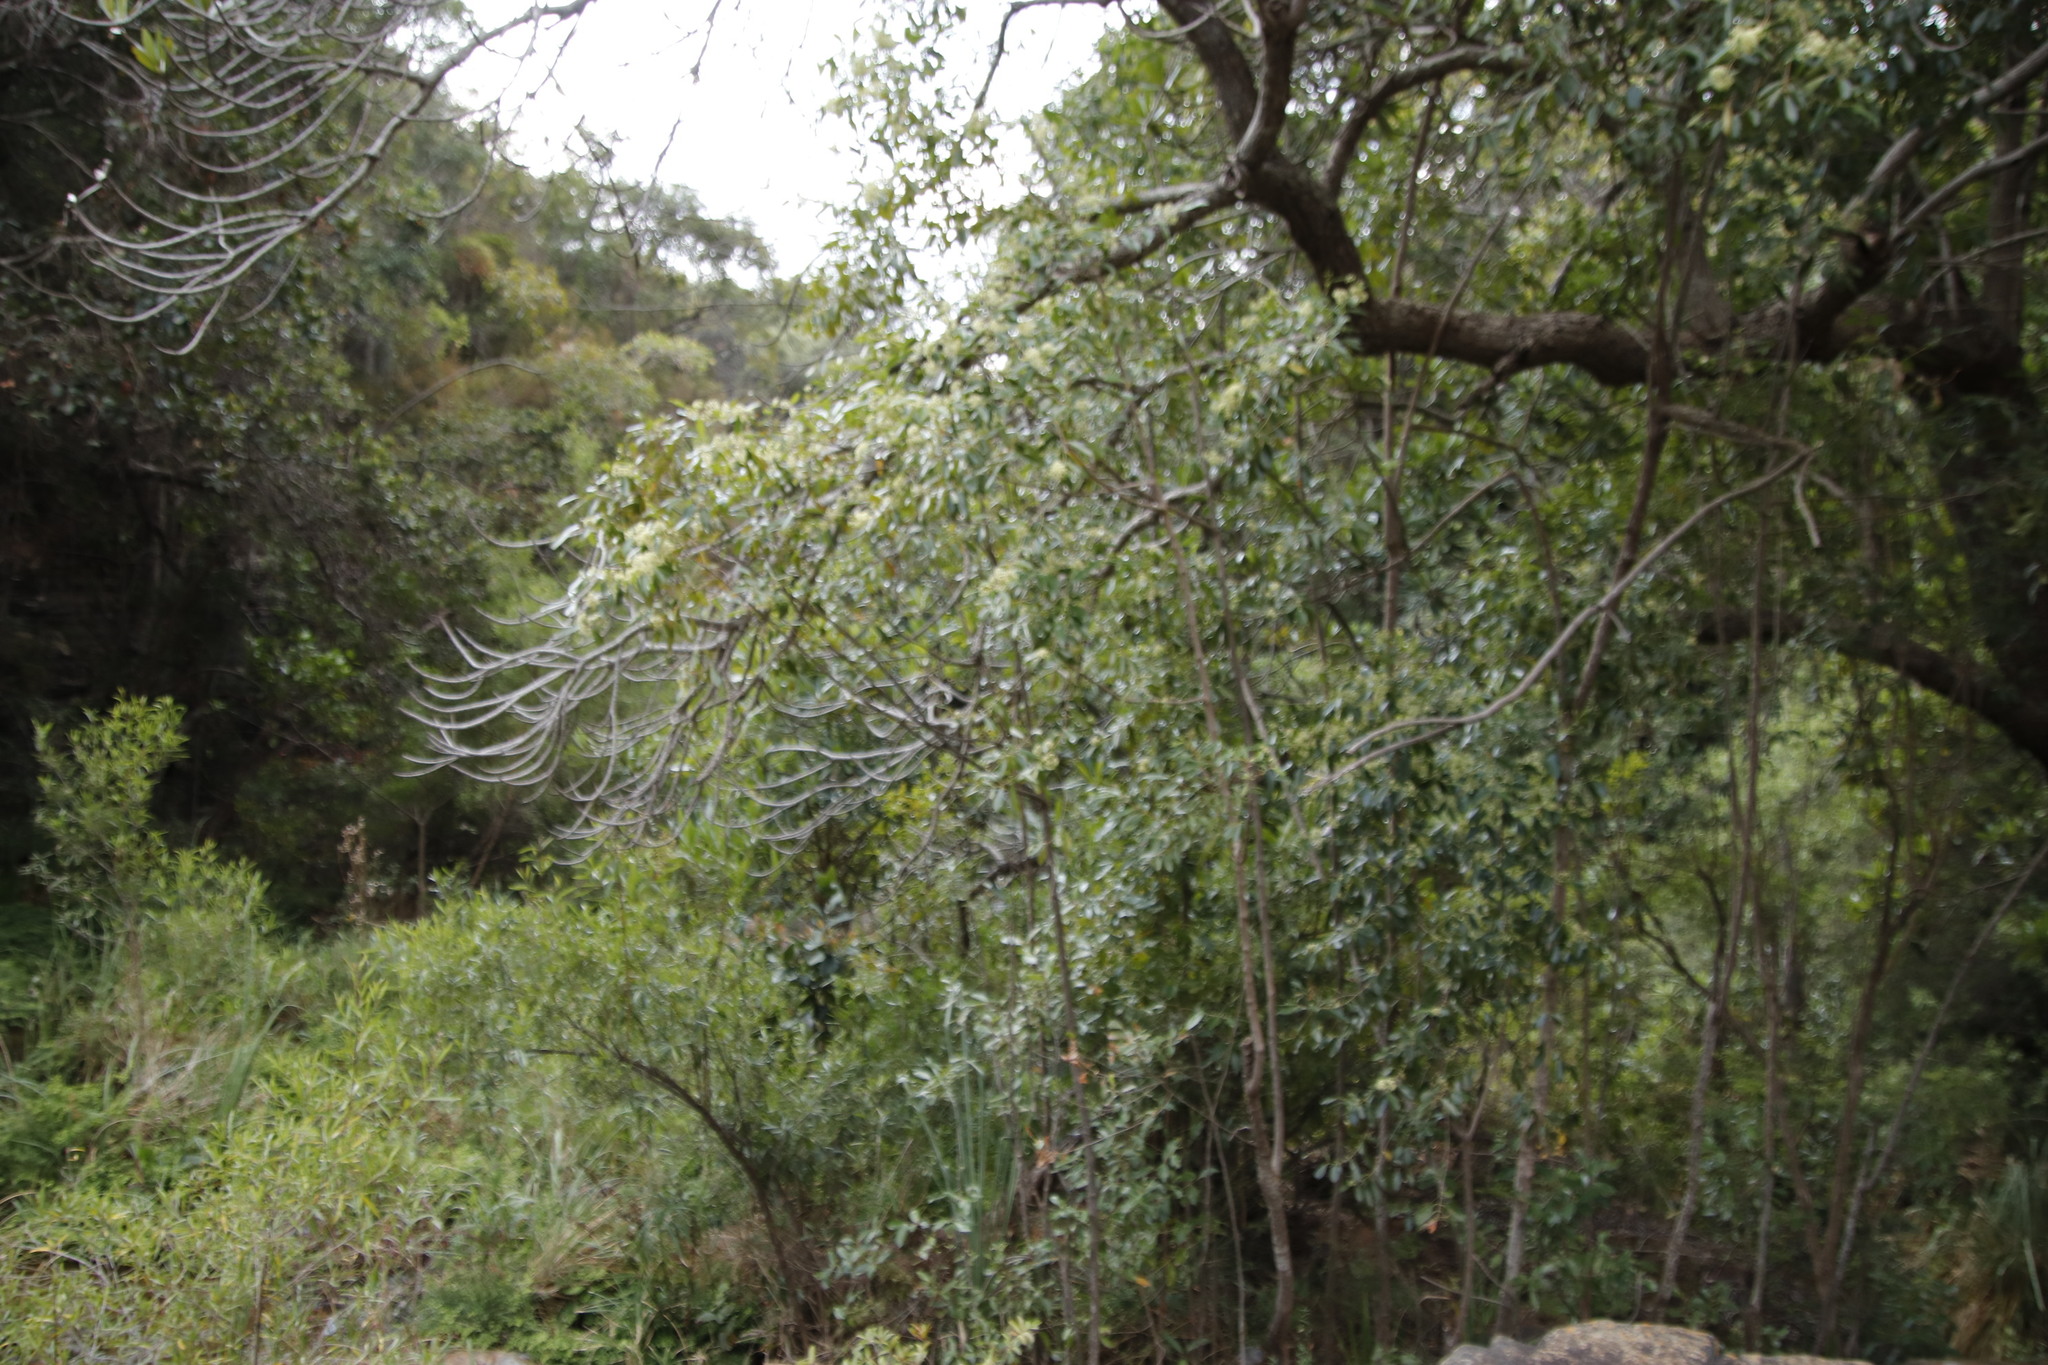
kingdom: Plantae
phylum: Tracheophyta
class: Magnoliopsida
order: Celastrales
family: Celastraceae
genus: Catha
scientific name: Catha edulis
